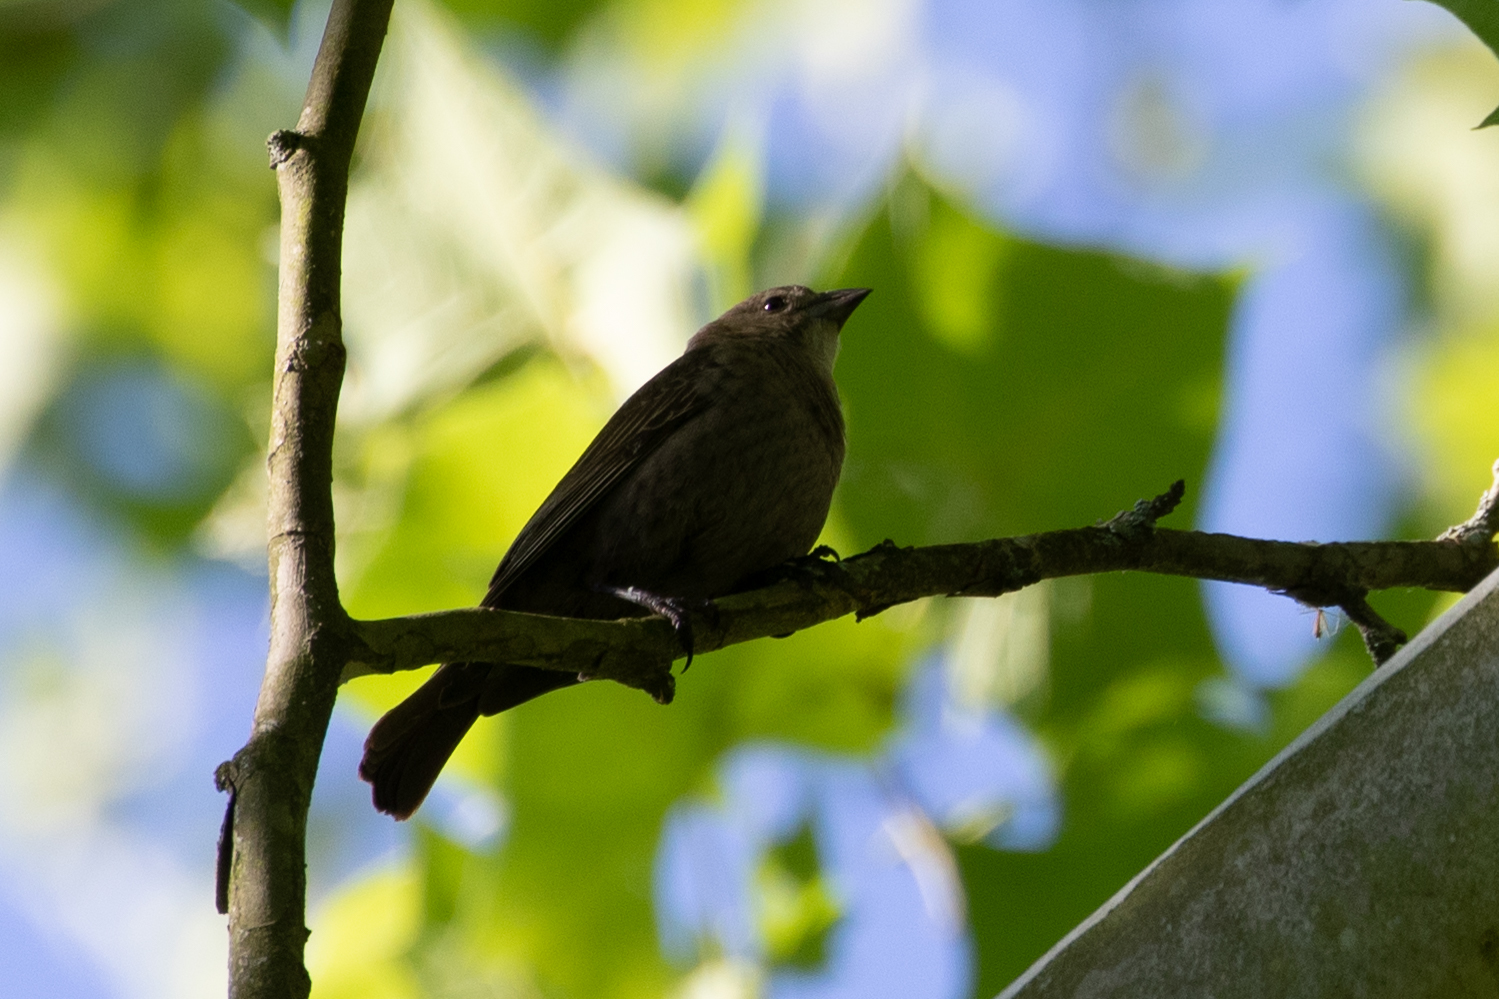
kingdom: Animalia
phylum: Chordata
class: Aves
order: Passeriformes
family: Icteridae
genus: Molothrus
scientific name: Molothrus ater
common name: Brown-headed cowbird
